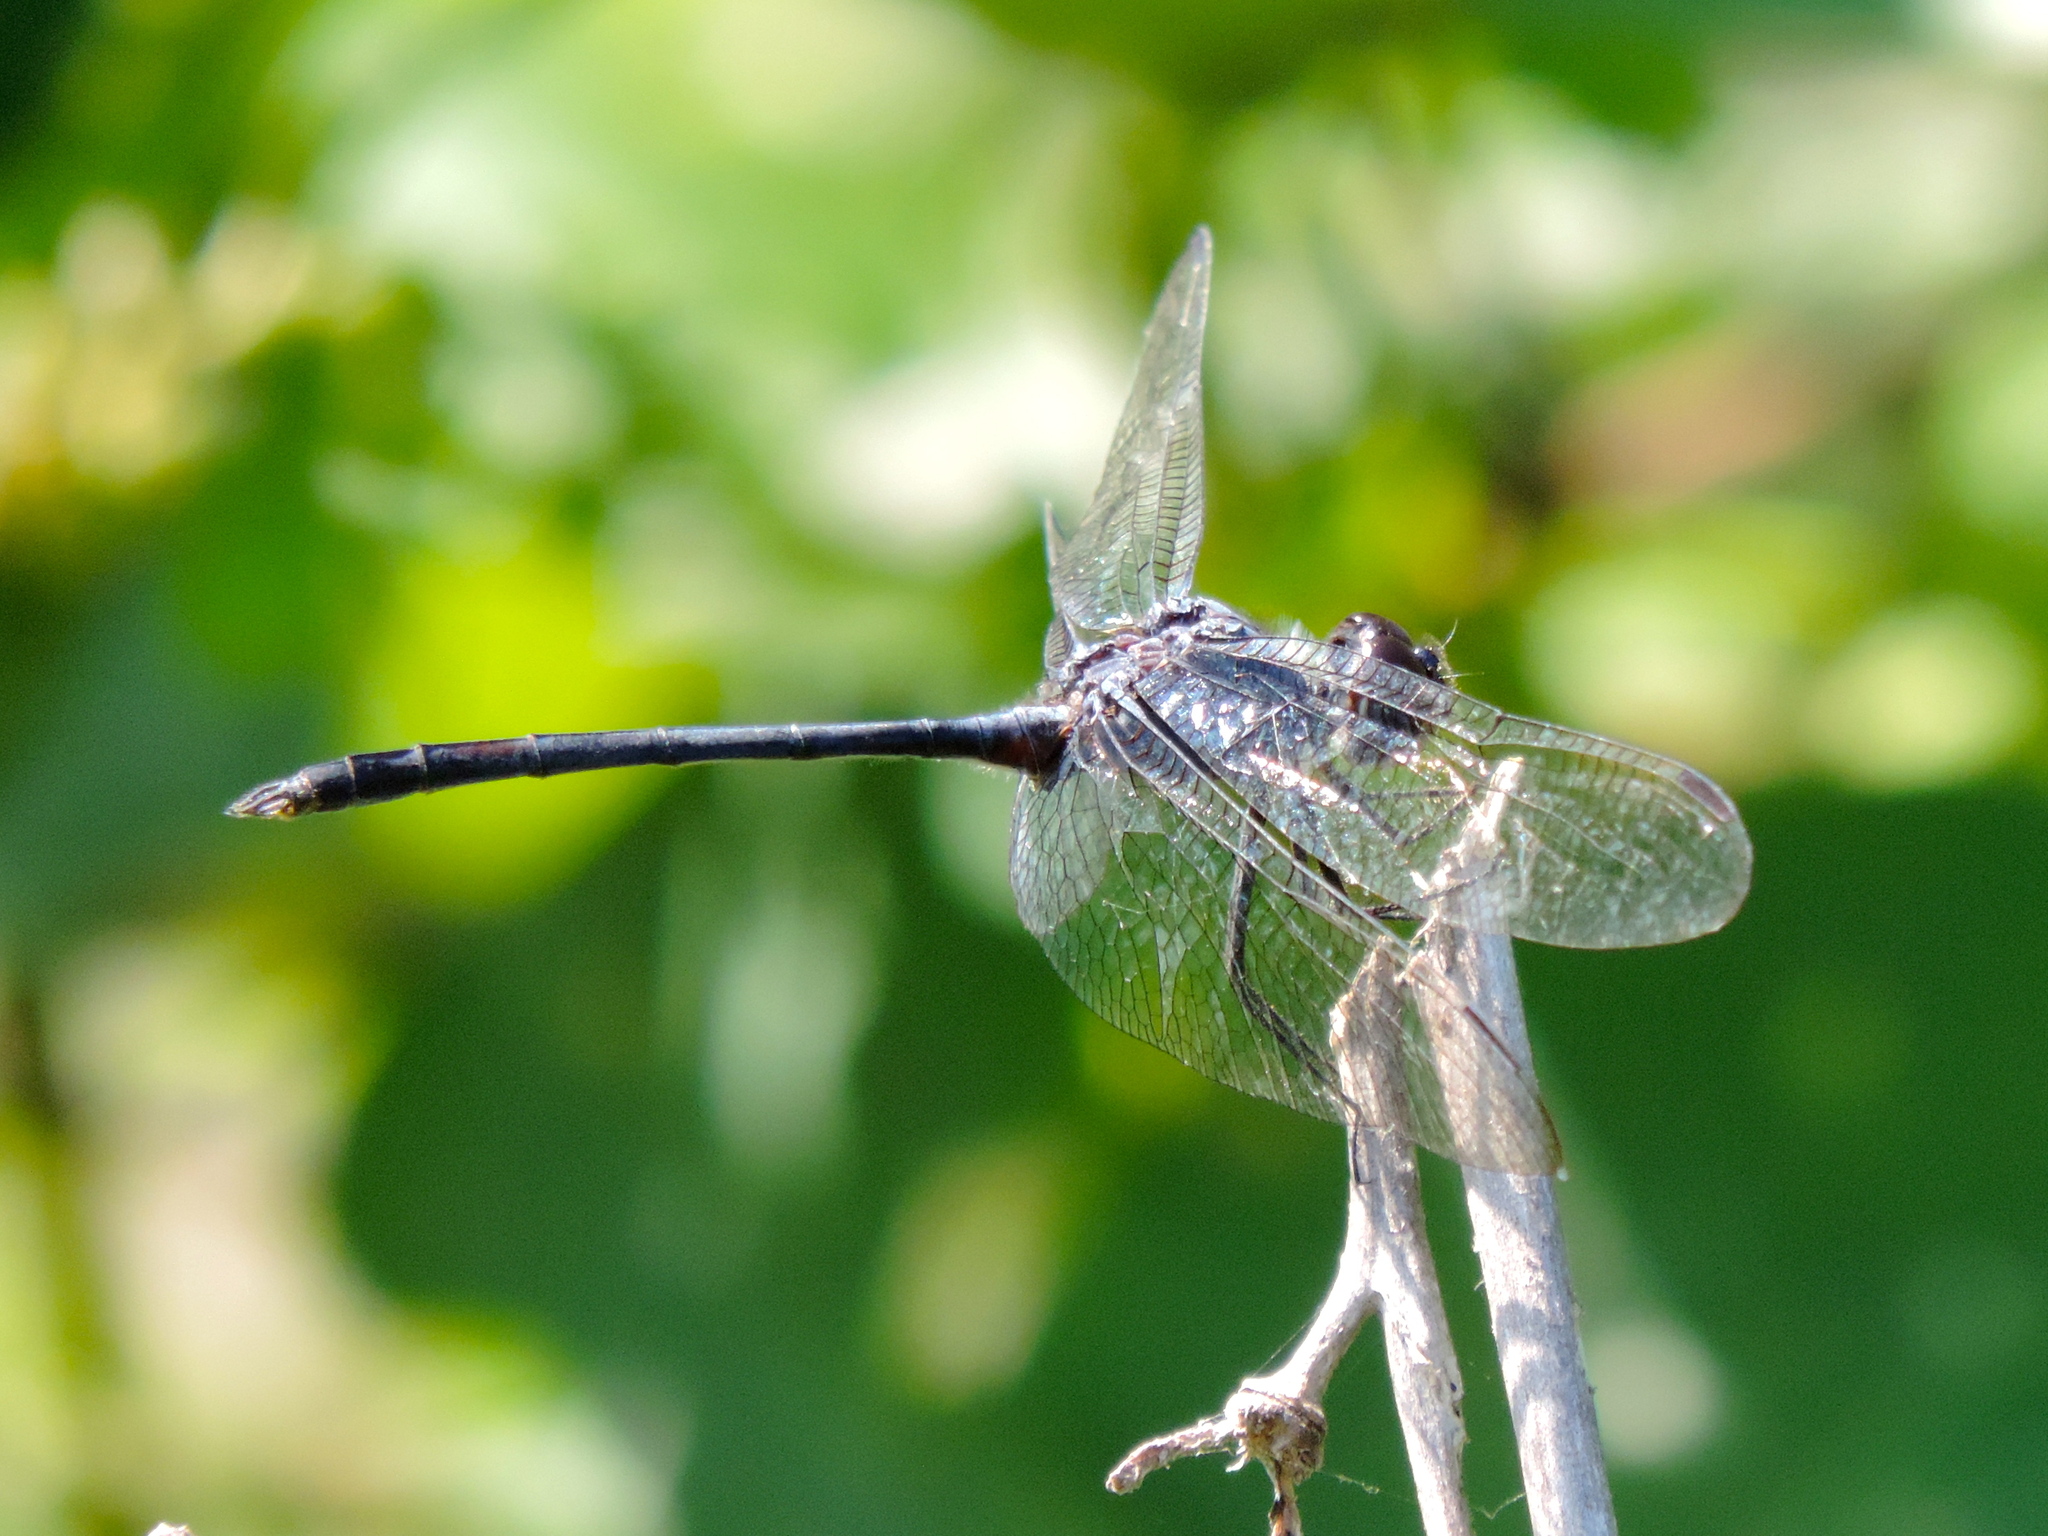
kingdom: Animalia
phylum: Arthropoda
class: Insecta
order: Odonata
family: Libellulidae
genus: Dythemis
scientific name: Dythemis nigrescens
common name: Black setwing
